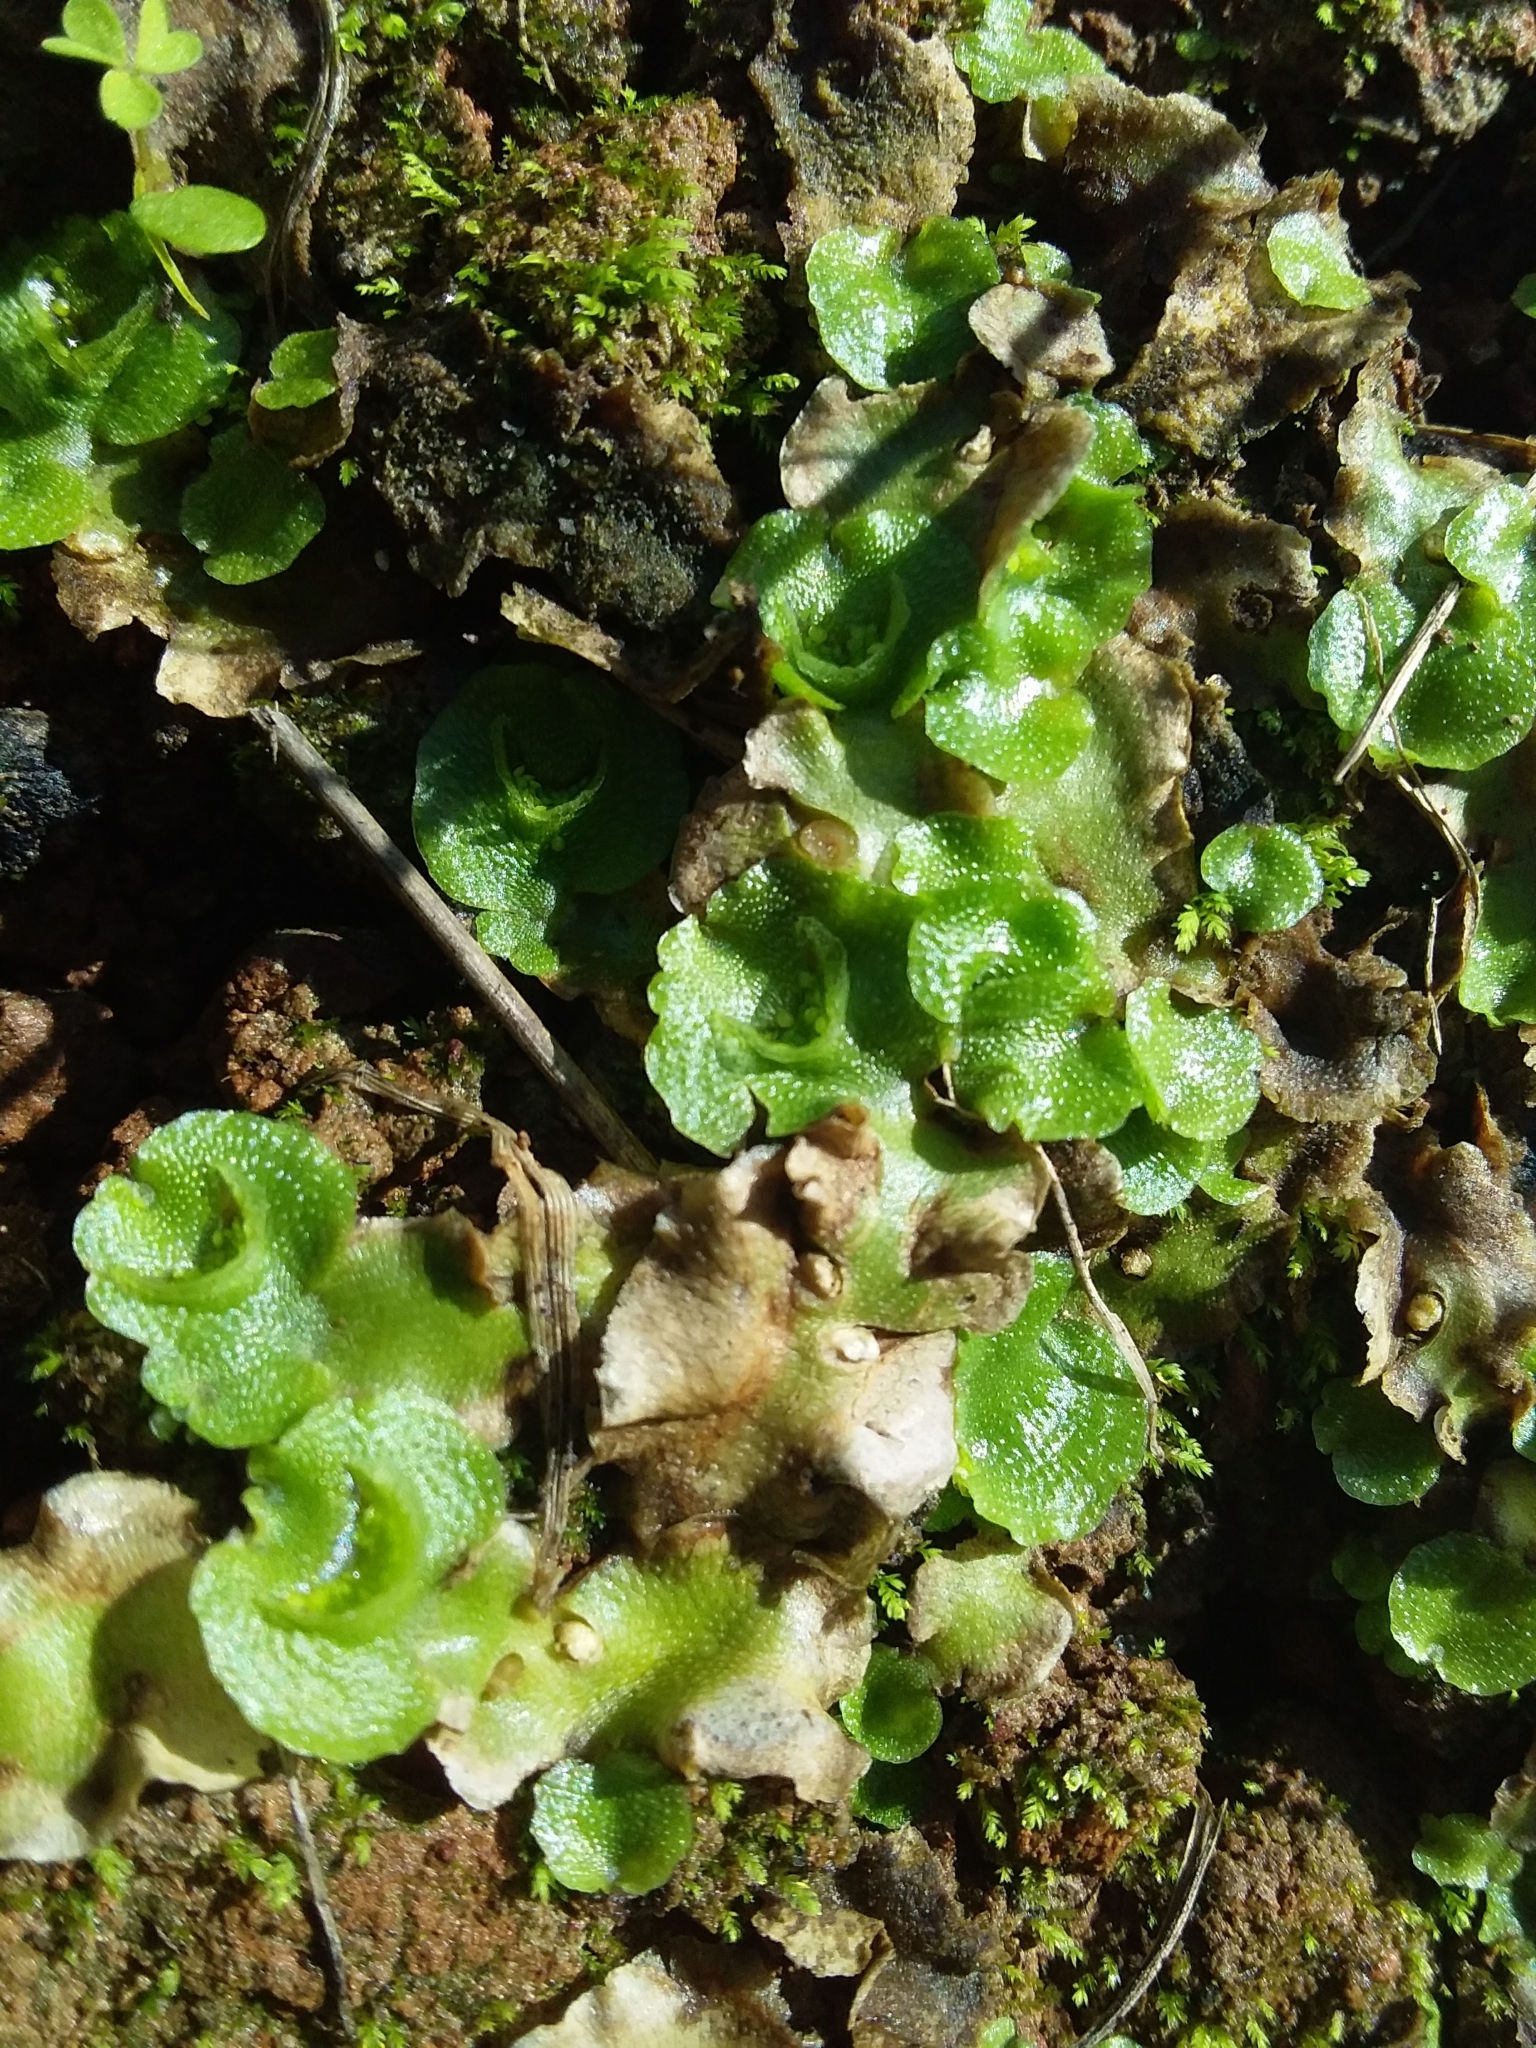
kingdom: Plantae
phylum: Marchantiophyta
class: Marchantiopsida
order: Lunulariales
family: Lunulariaceae
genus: Lunularia
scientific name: Lunularia cruciata
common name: Crescent-cup liverwort
